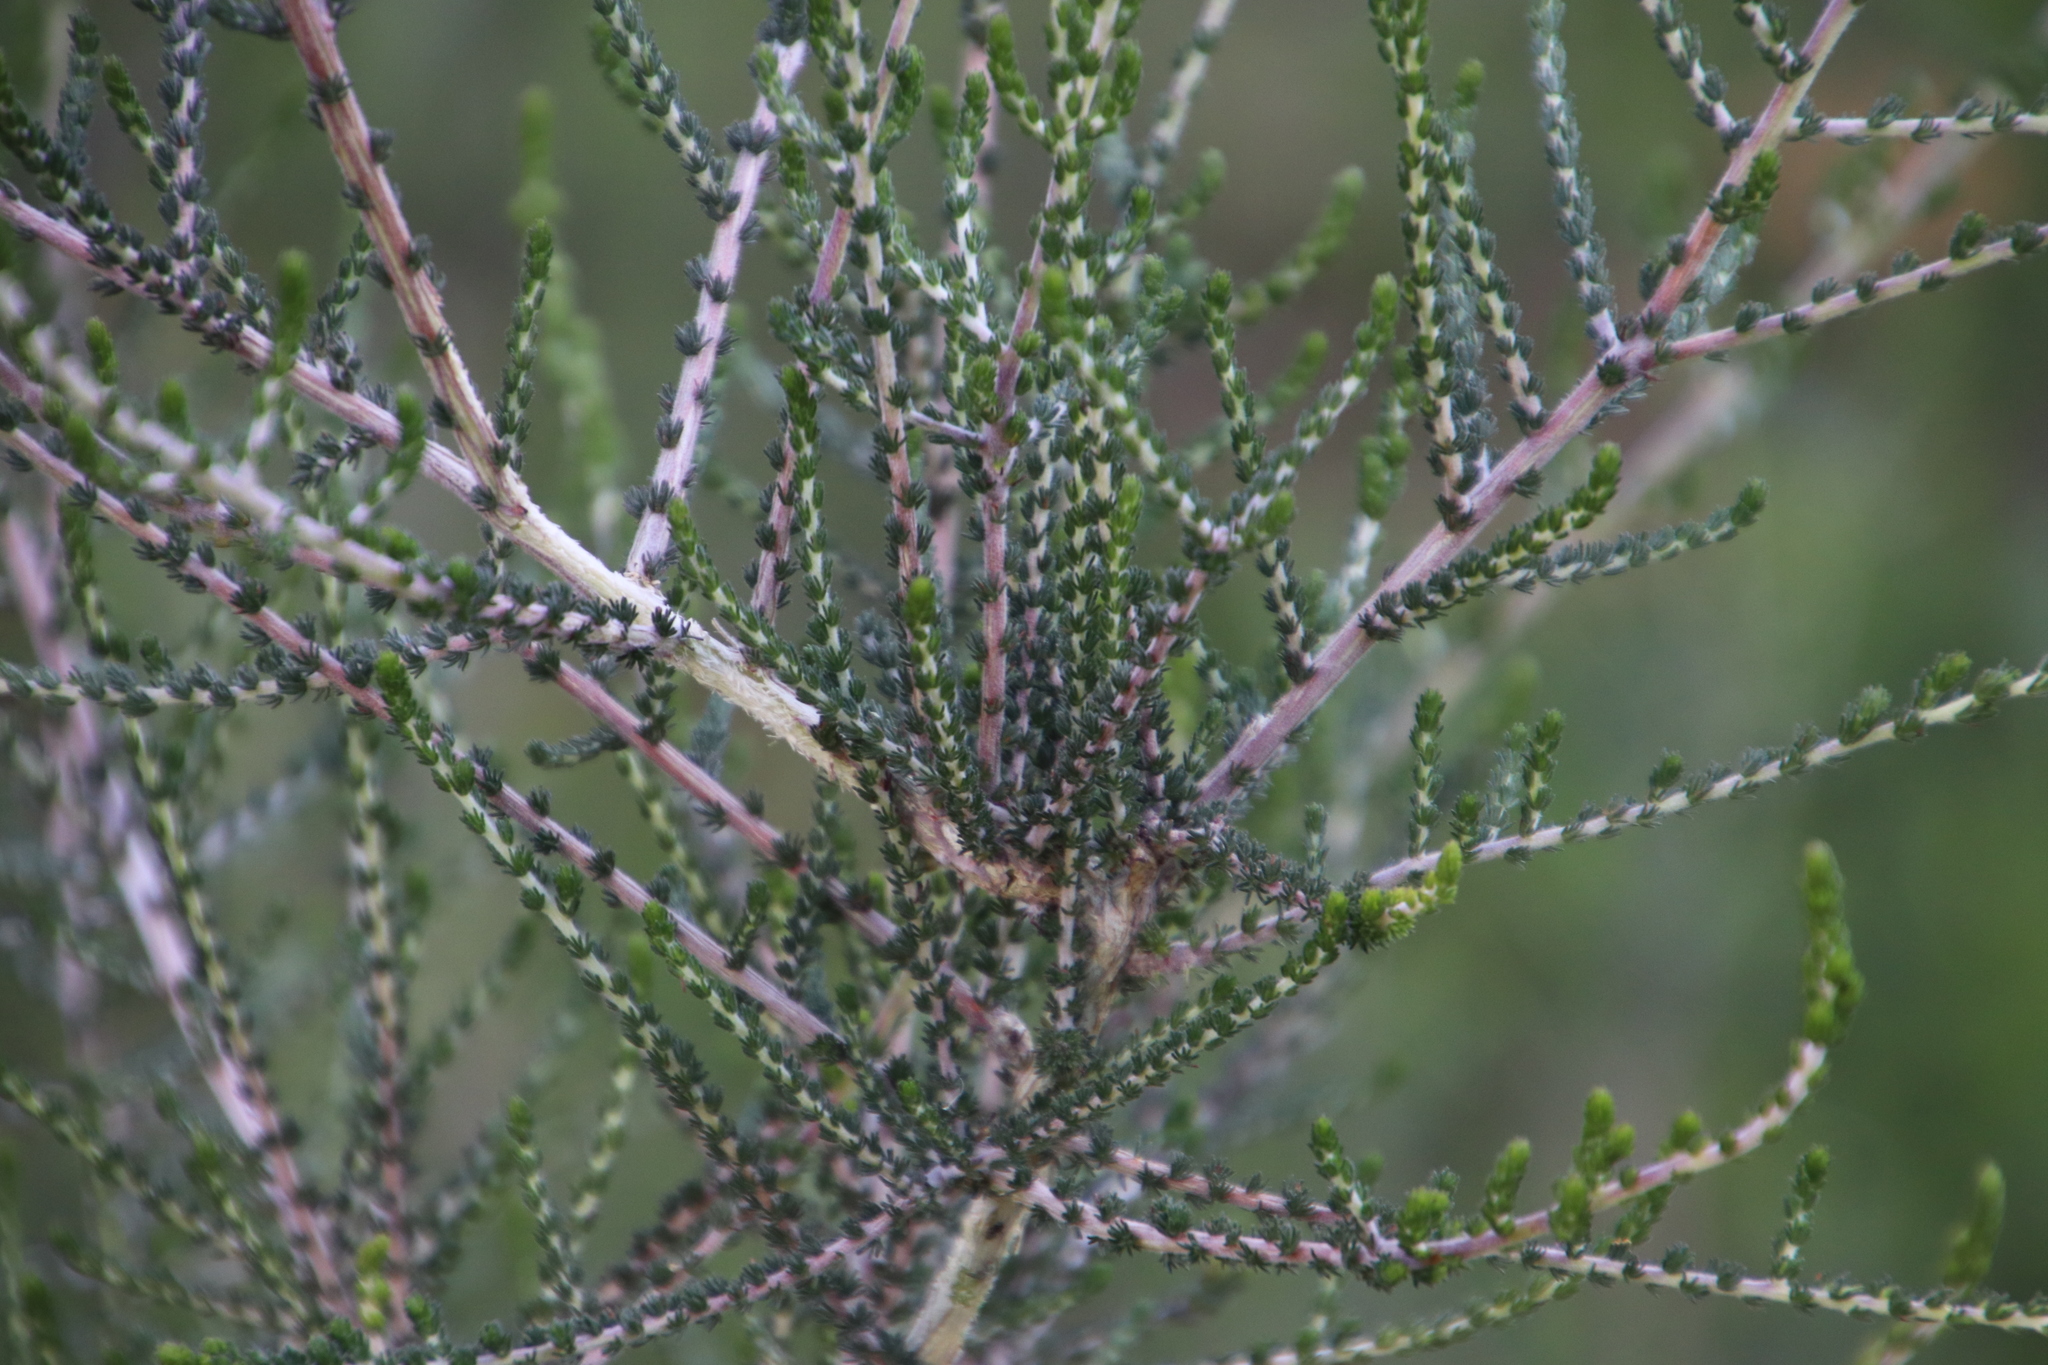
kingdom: Plantae
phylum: Tracheophyta
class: Magnoliopsida
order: Fabales
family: Fabaceae
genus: Aspalathus
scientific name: Aspalathus hispida
